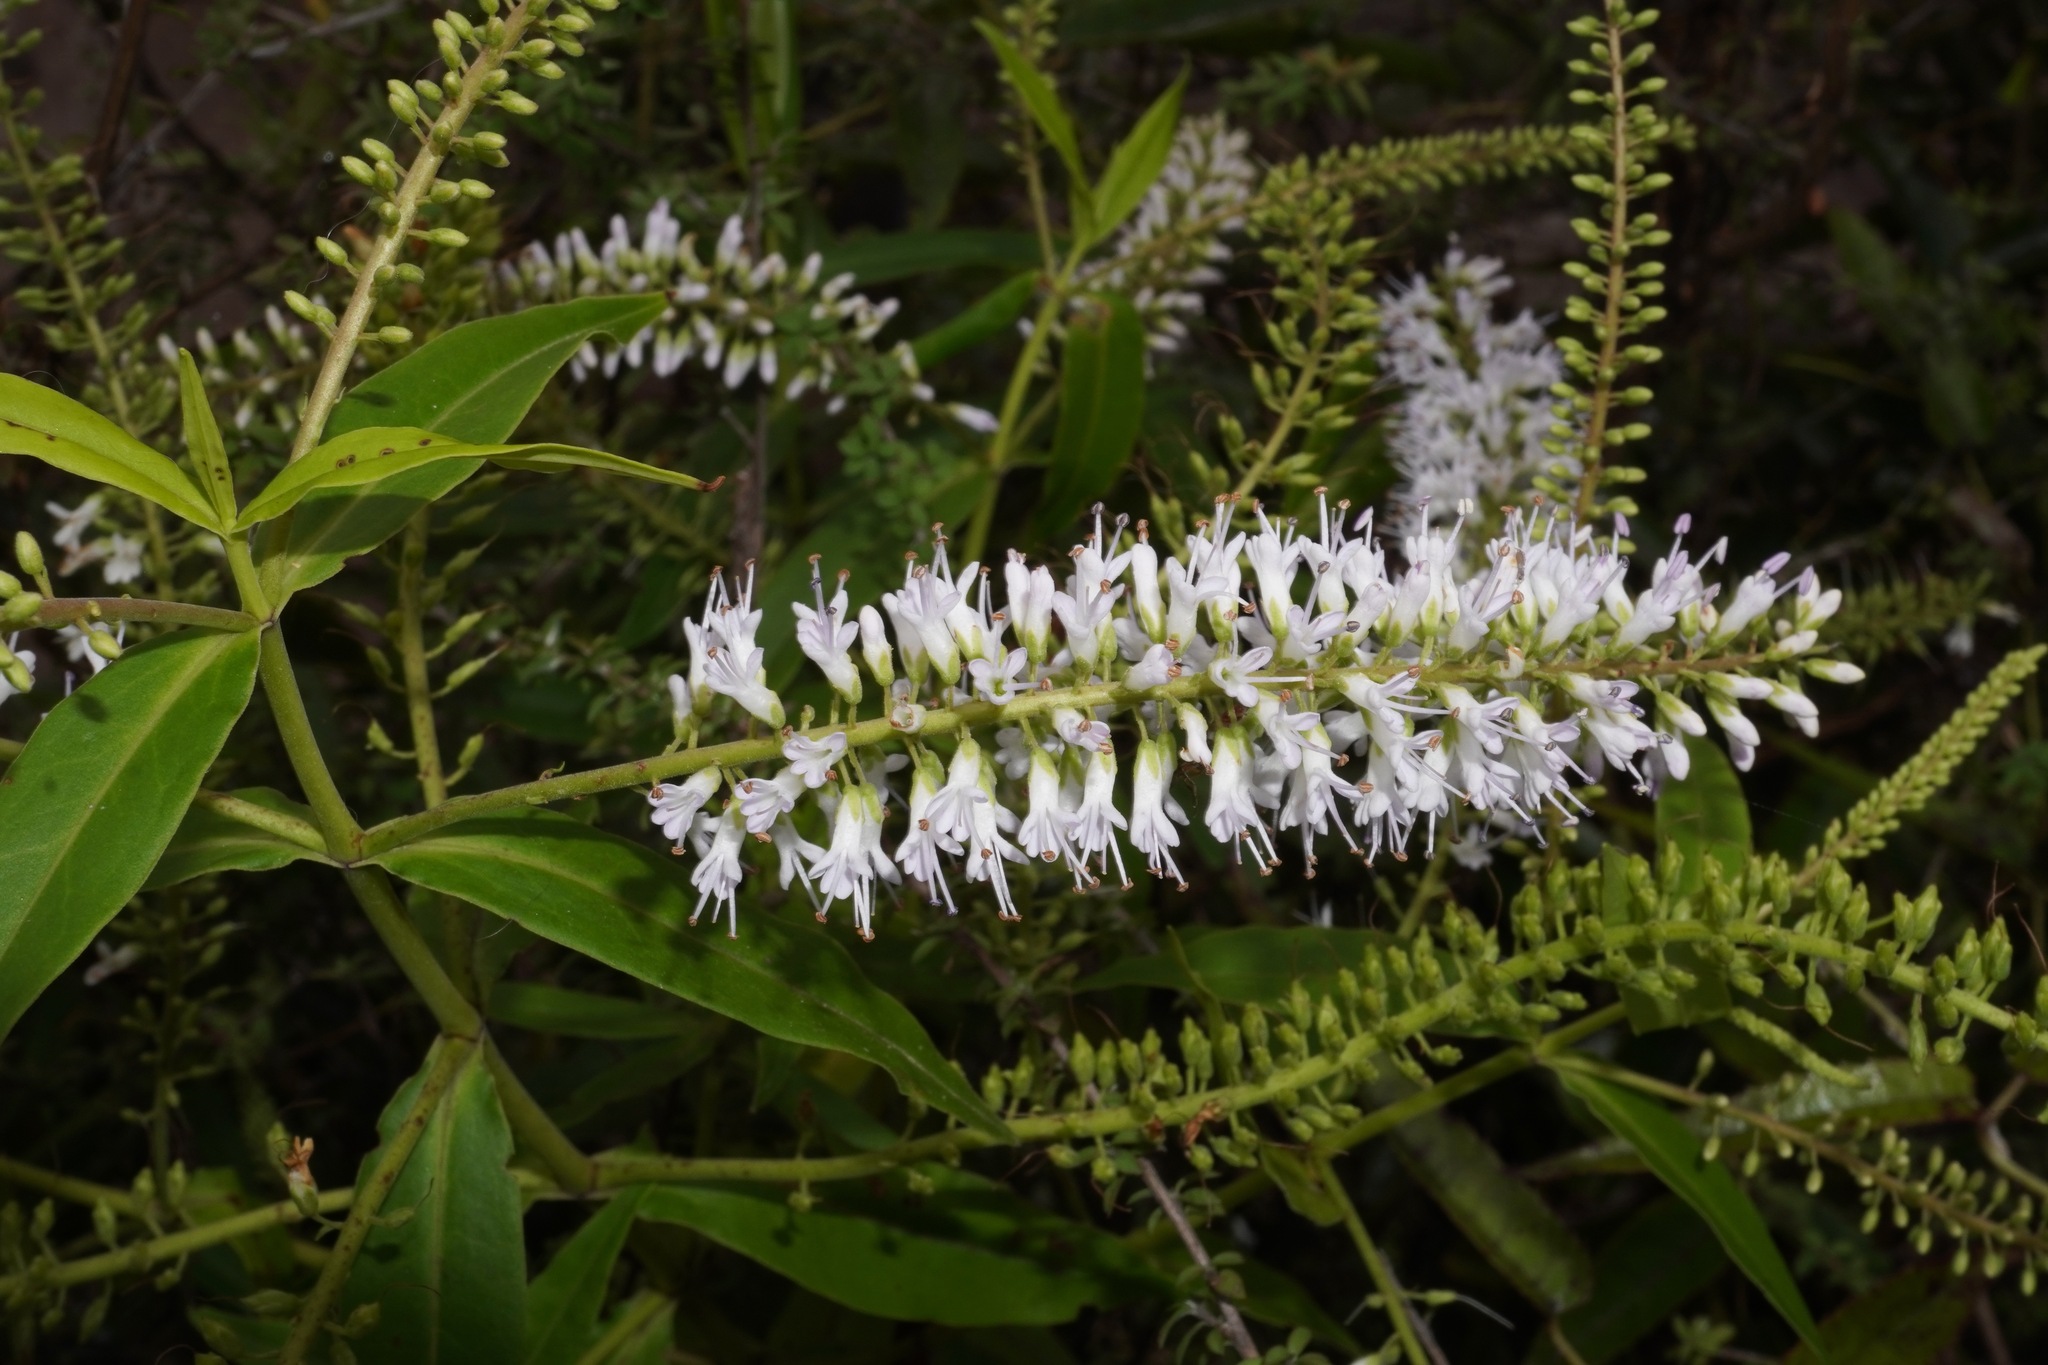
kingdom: Plantae
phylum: Tracheophyta
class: Magnoliopsida
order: Lamiales
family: Plantaginaceae
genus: Veronica
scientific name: Veronica stricta
